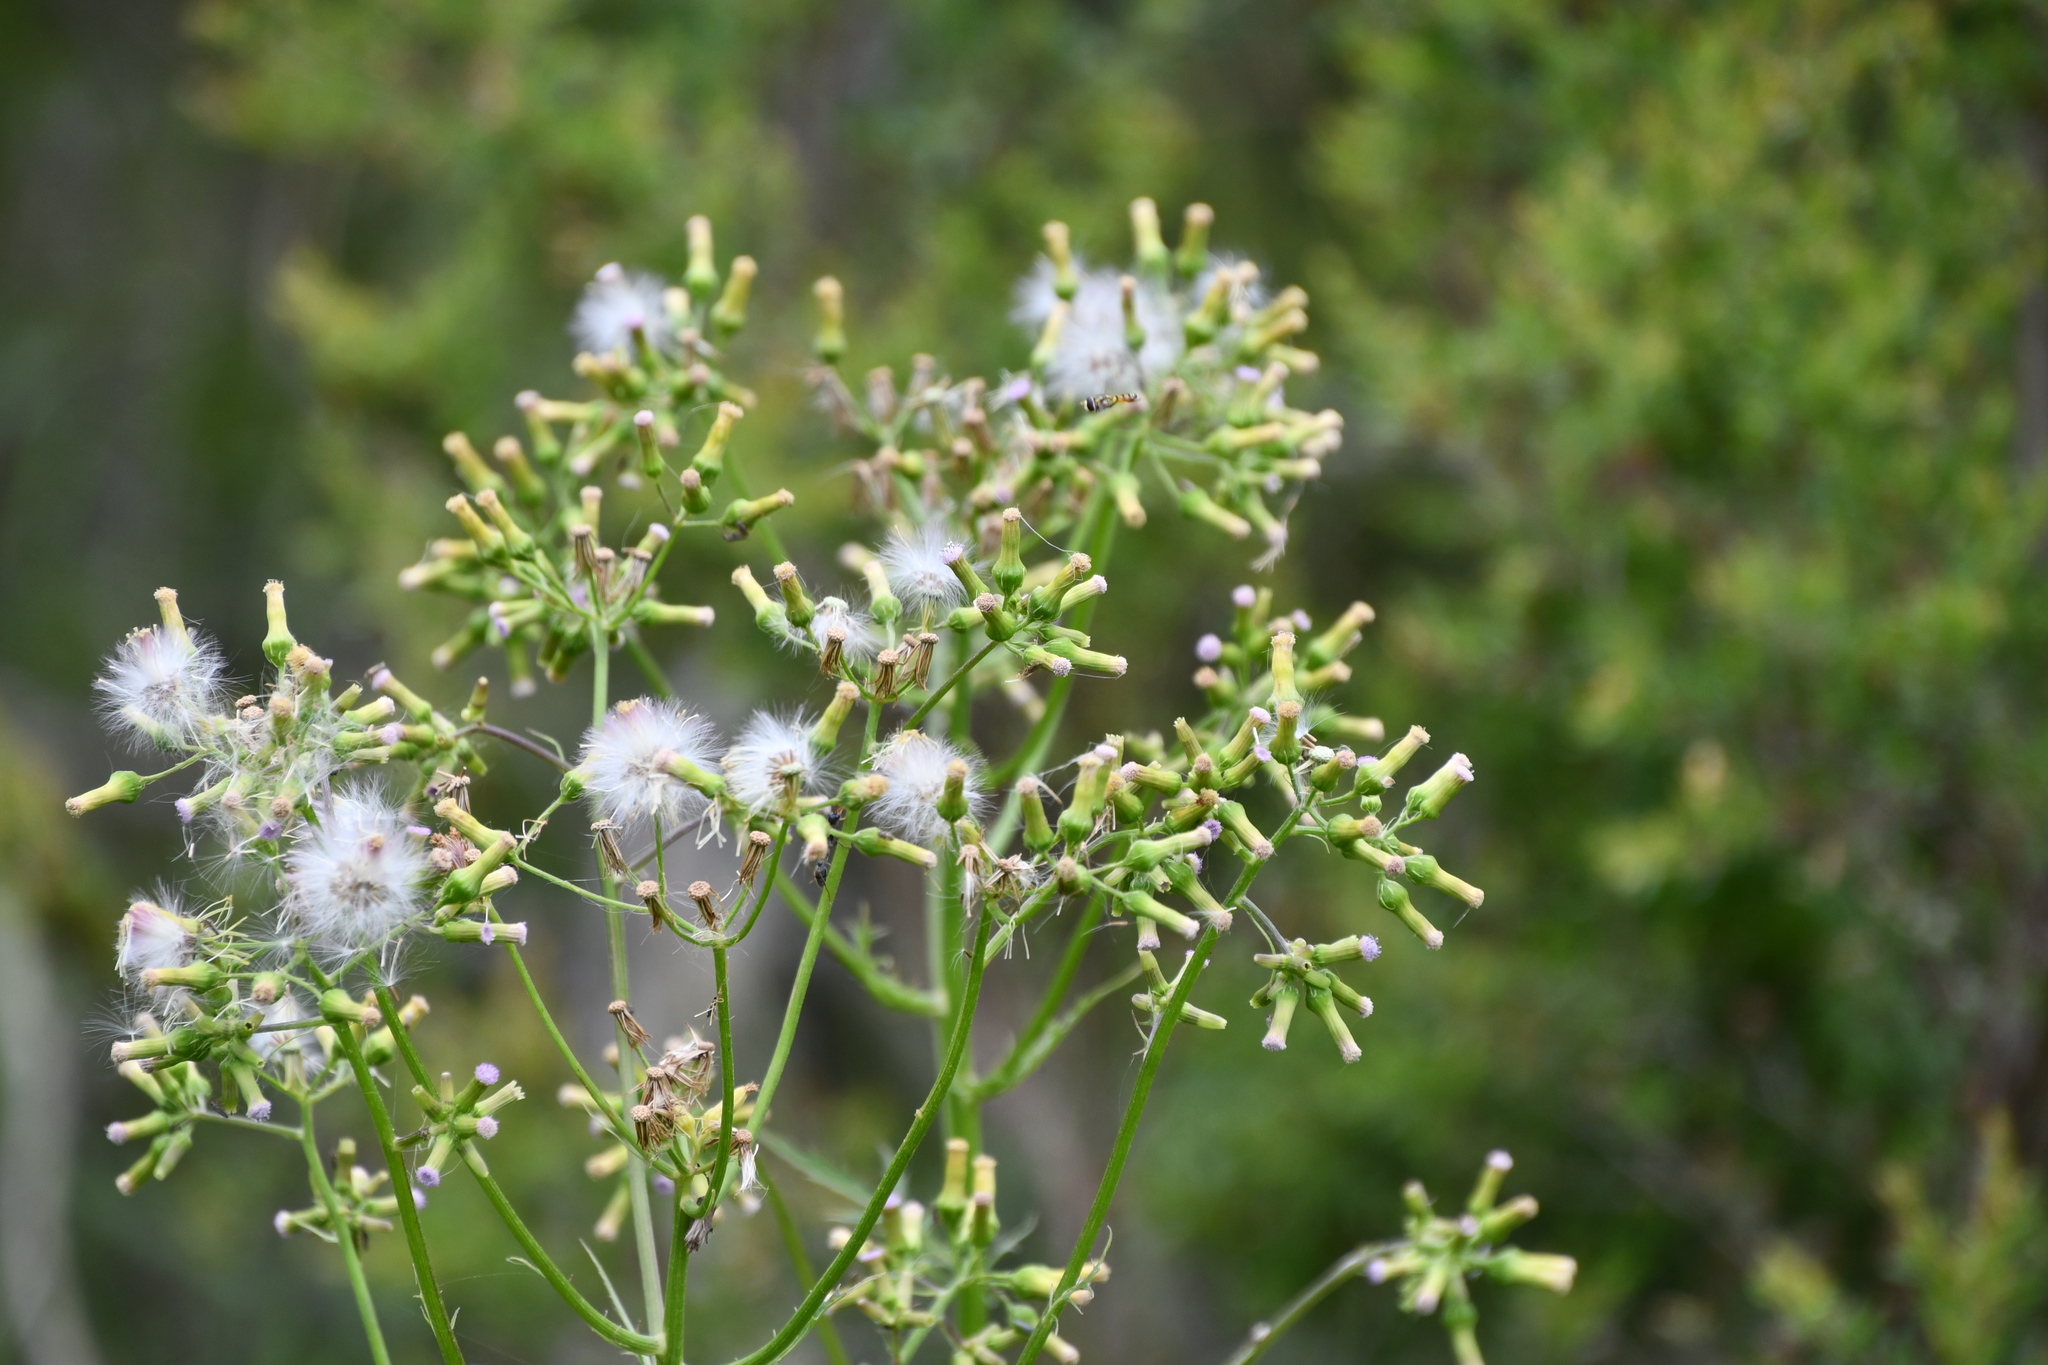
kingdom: Plantae
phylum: Tracheophyta
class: Magnoliopsida
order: Asterales
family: Asteraceae
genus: Erechtites
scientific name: Erechtites valerianifolius
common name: Tropical burnweed
